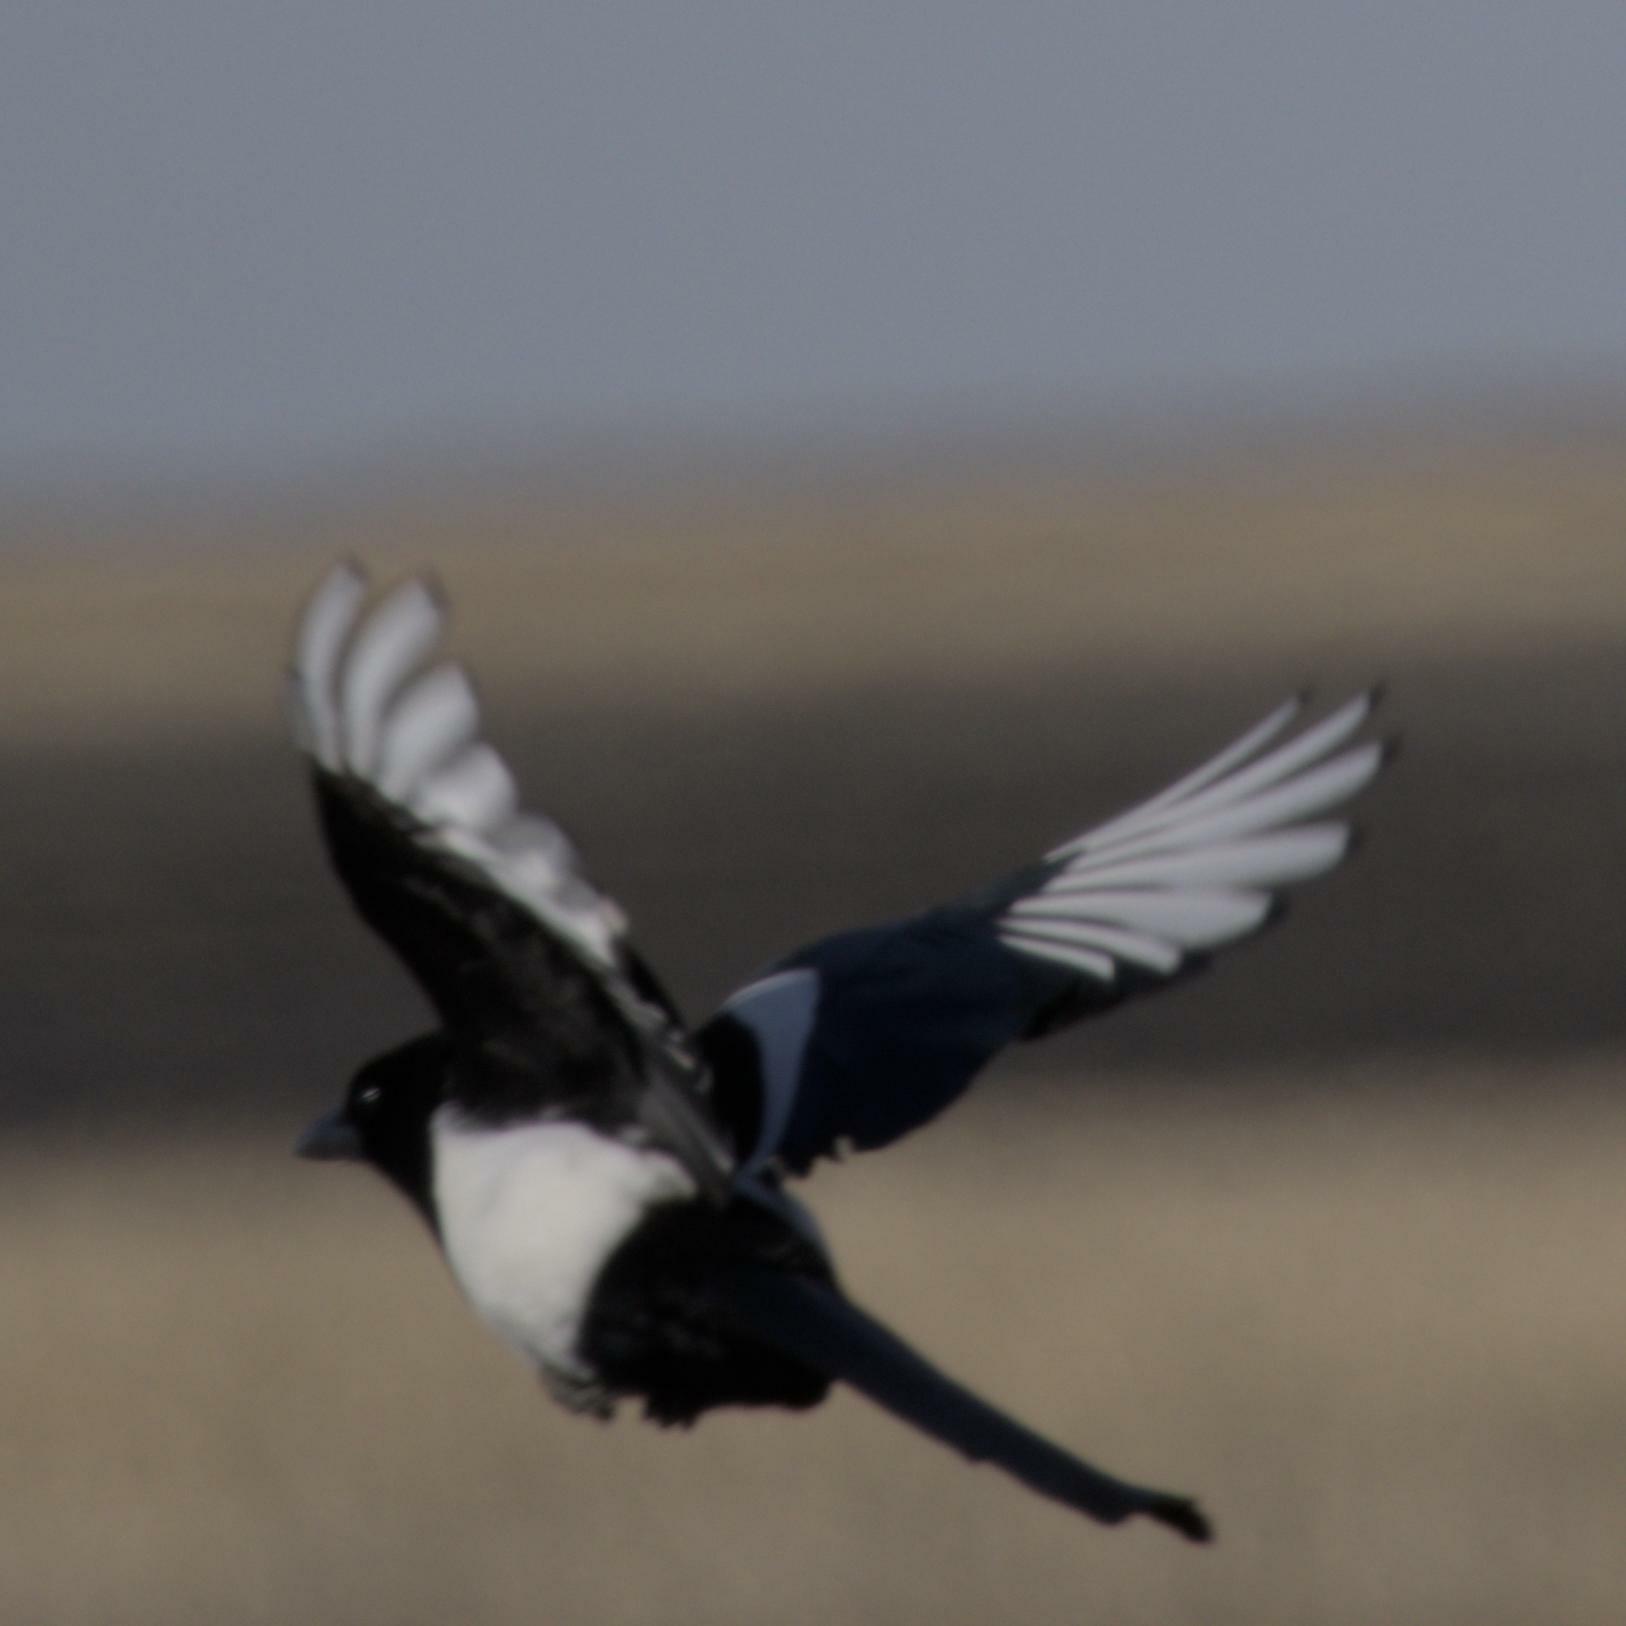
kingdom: Animalia
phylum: Chordata
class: Aves
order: Passeriformes
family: Corvidae
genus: Pica
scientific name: Pica hudsonia
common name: Black-billed magpie
